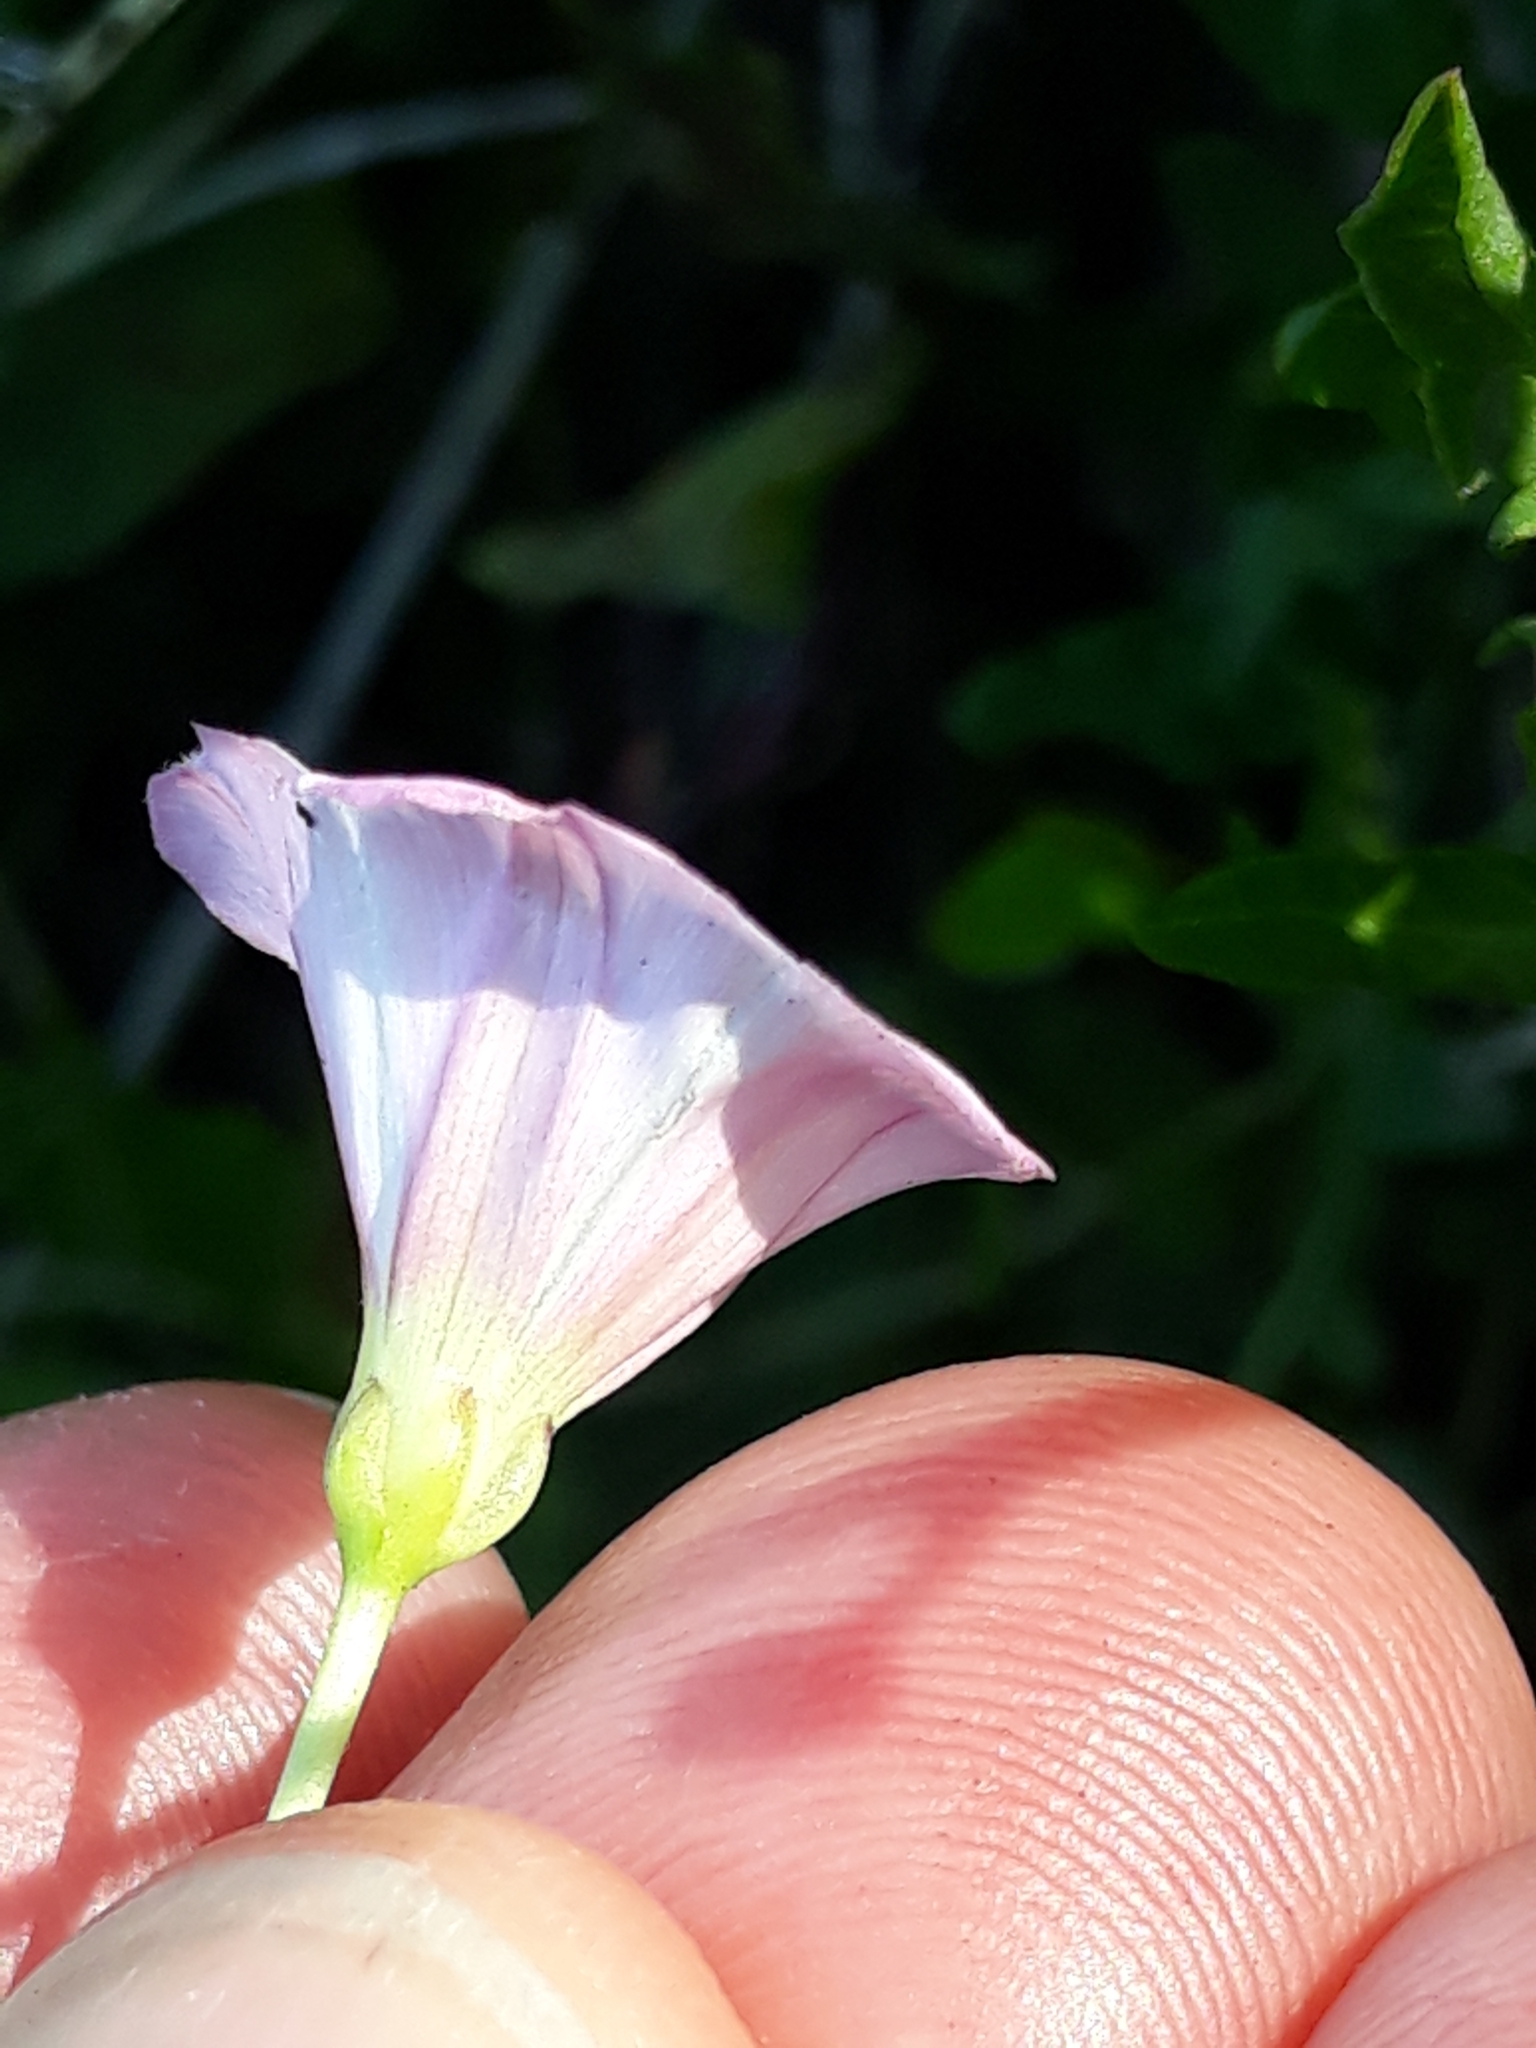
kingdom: Plantae
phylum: Tracheophyta
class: Magnoliopsida
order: Solanales
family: Convolvulaceae
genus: Convolvulus
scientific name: Convolvulus arvensis
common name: Field bindweed
